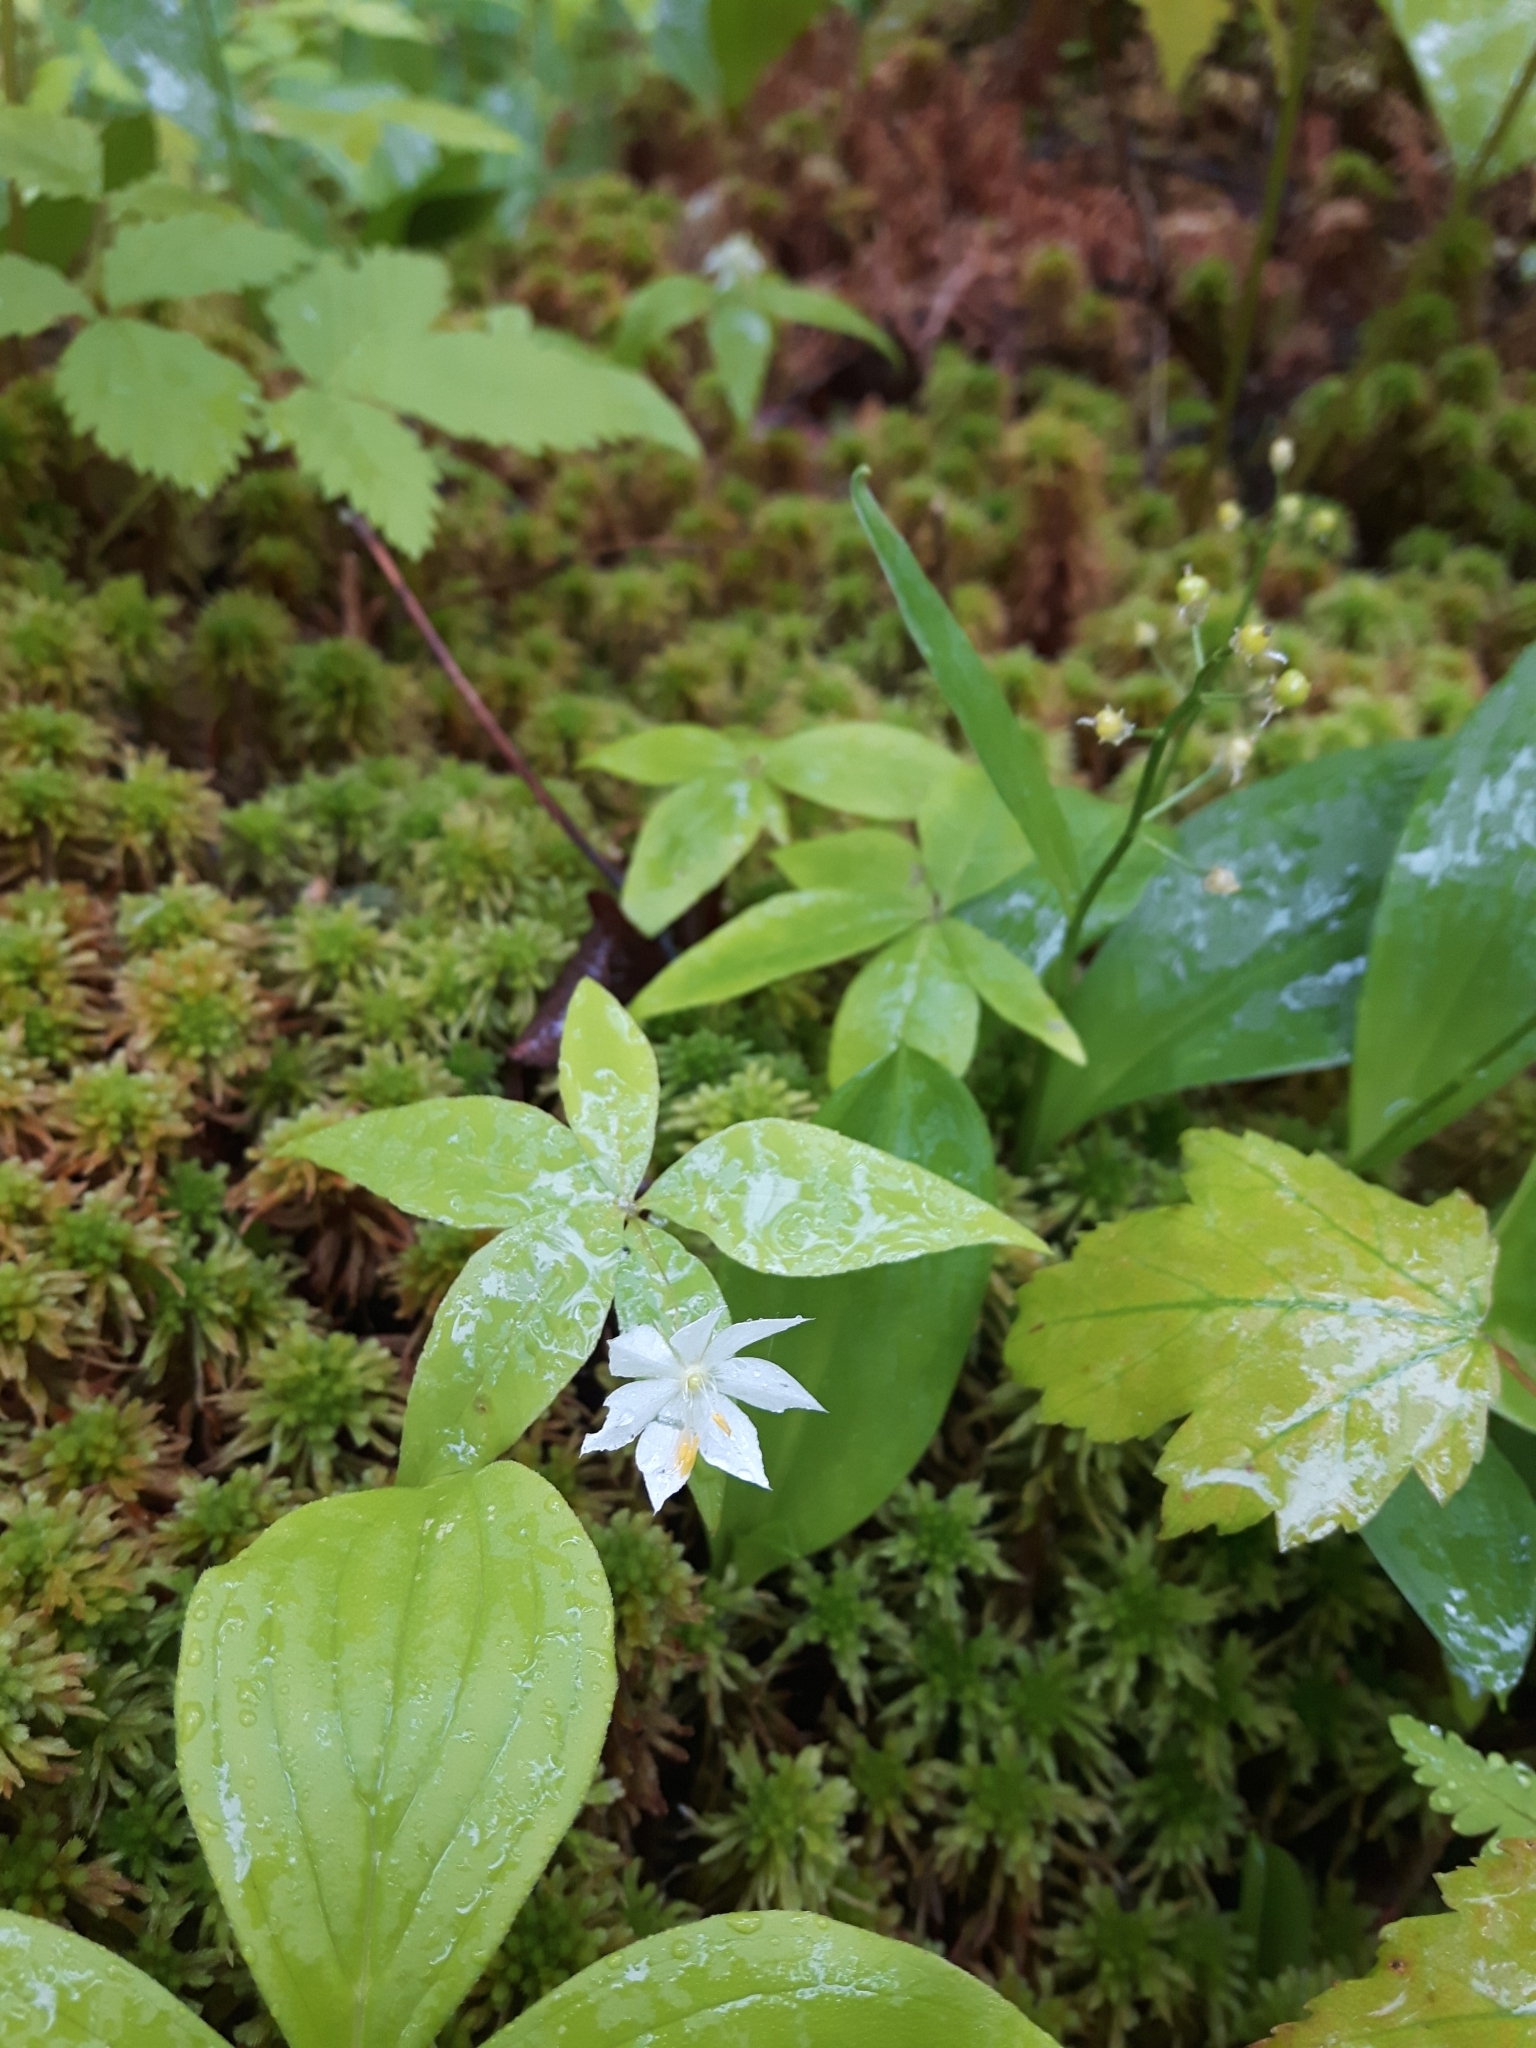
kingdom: Plantae
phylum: Tracheophyta
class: Magnoliopsida
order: Ericales
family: Primulaceae
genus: Lysimachia
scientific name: Lysimachia borealis
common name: American starflower
